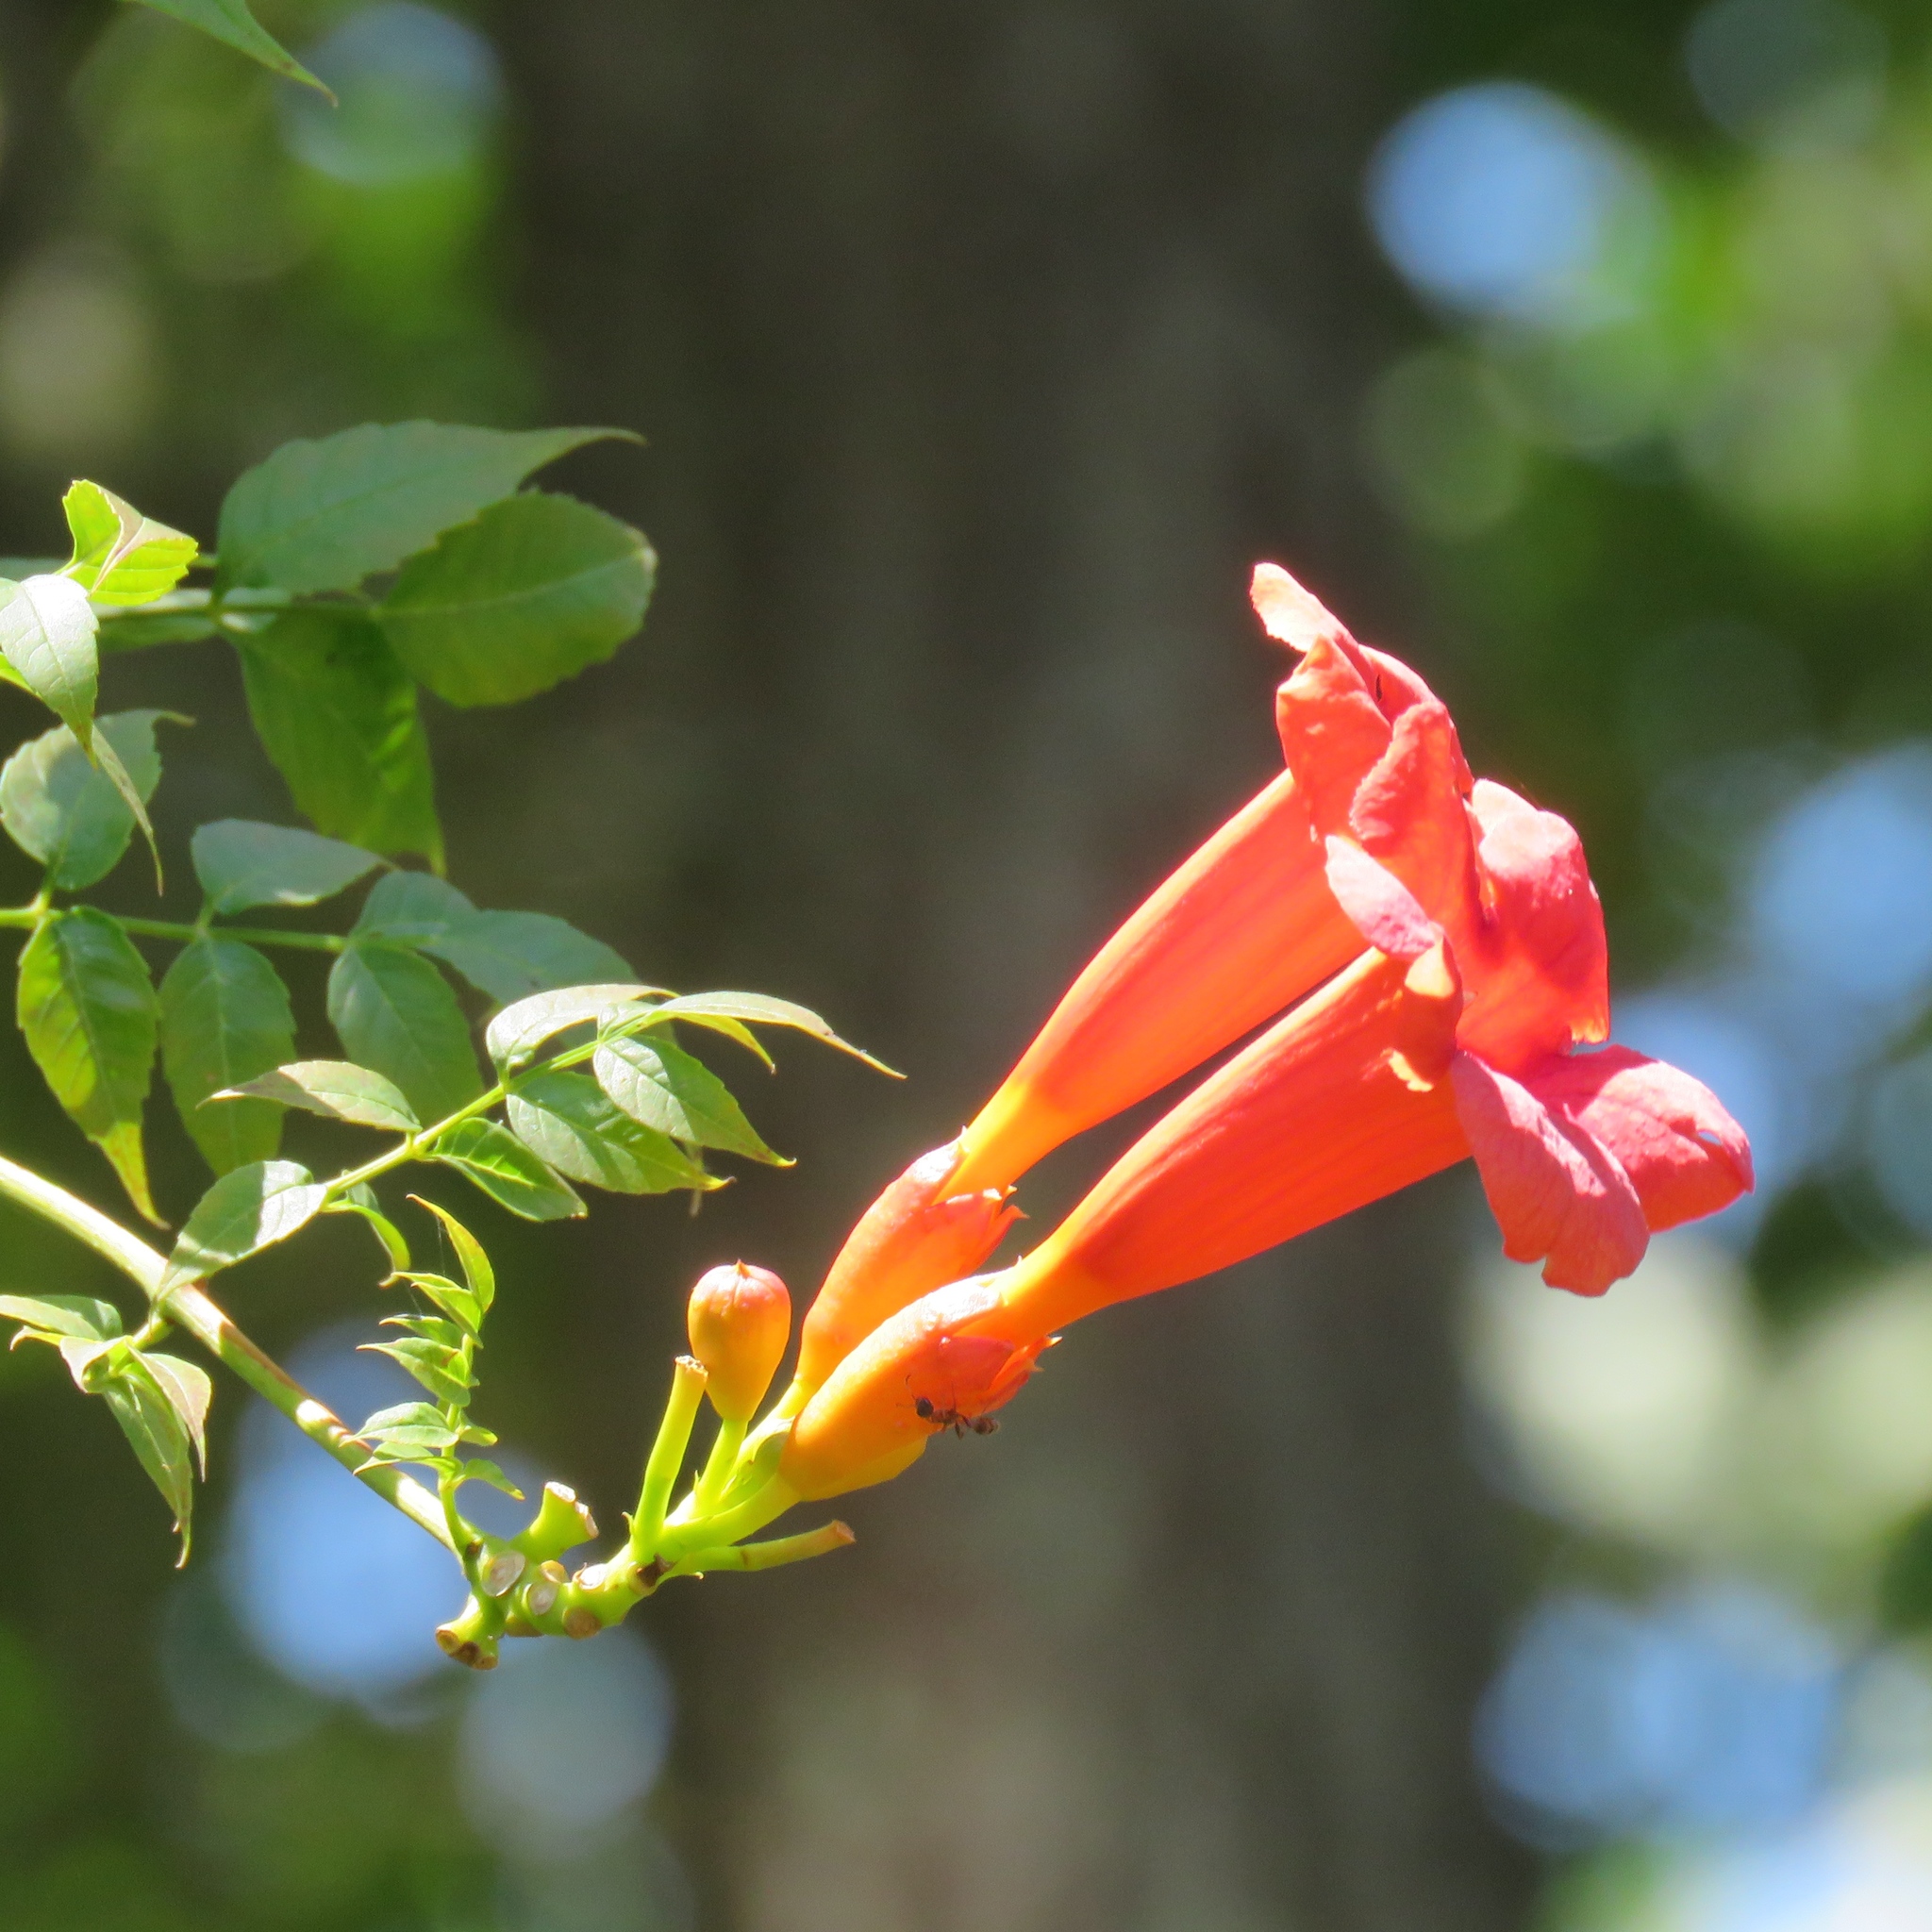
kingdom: Plantae
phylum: Tracheophyta
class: Magnoliopsida
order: Lamiales
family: Bignoniaceae
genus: Campsis
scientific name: Campsis radicans
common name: Trumpet-creeper
